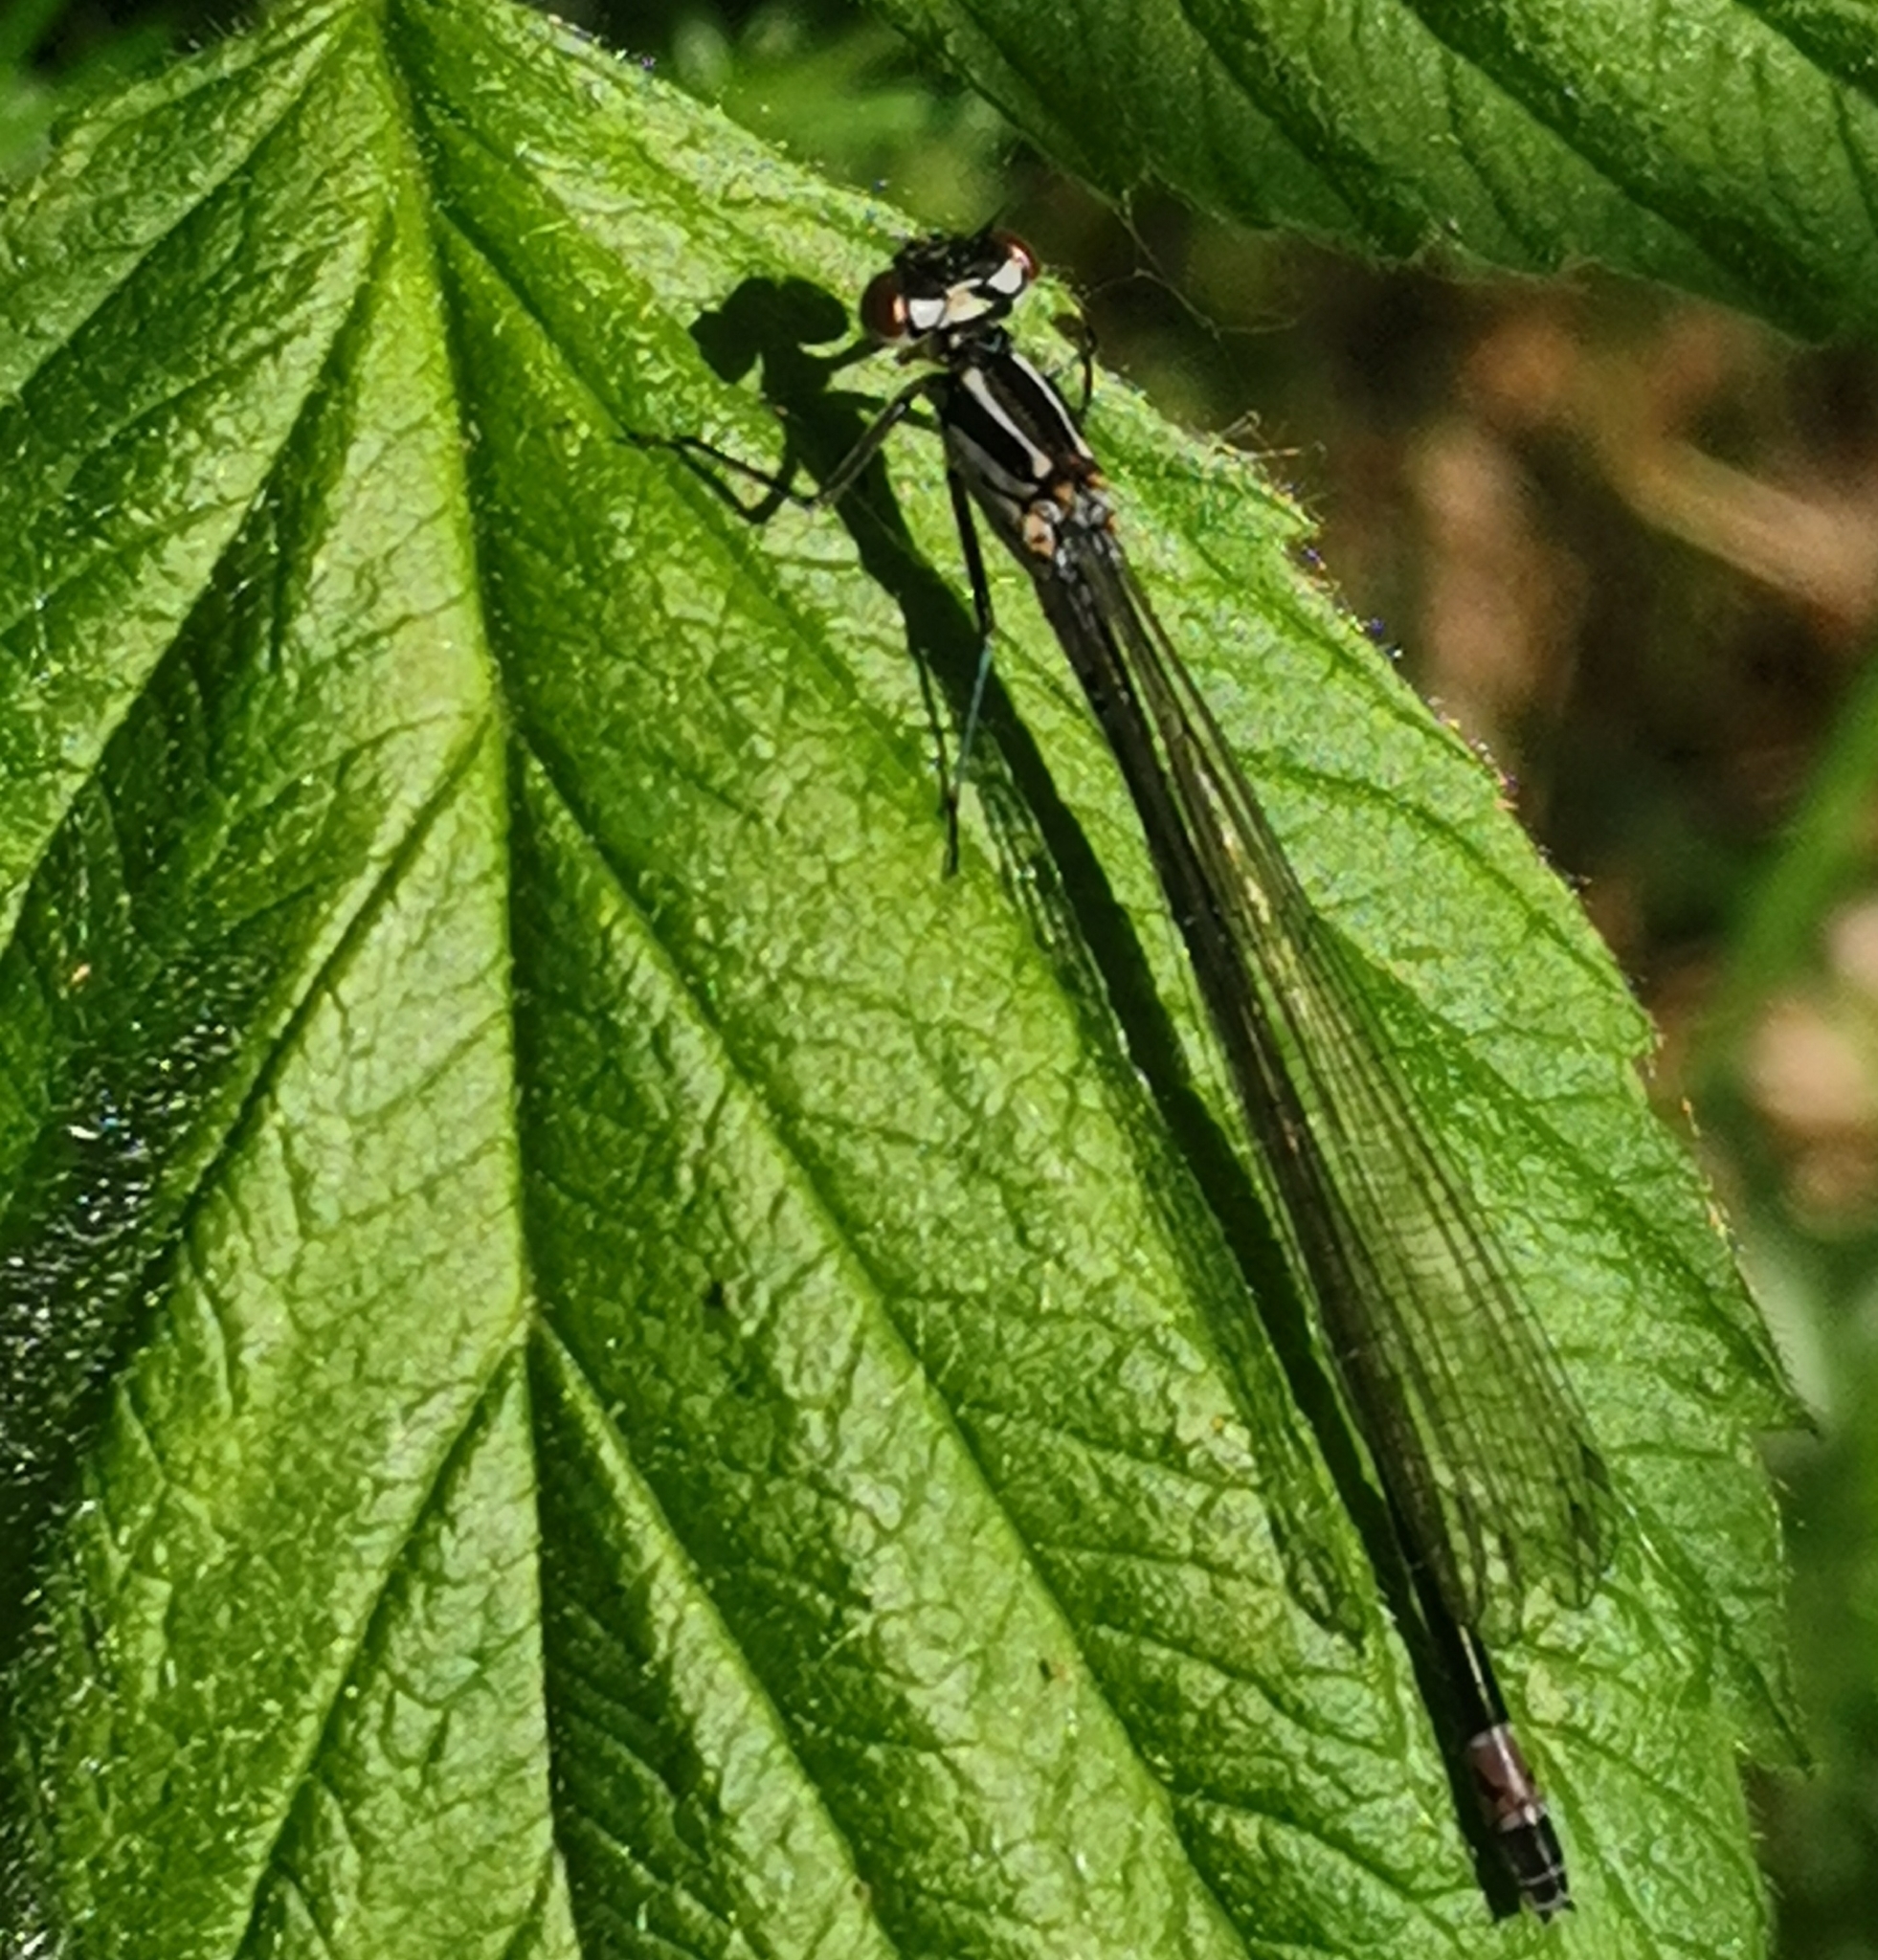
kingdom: Animalia
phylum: Arthropoda
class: Insecta
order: Odonata
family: Coenagrionidae
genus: Coenagrion
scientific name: Coenagrion pulchellum
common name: Variable bluet
